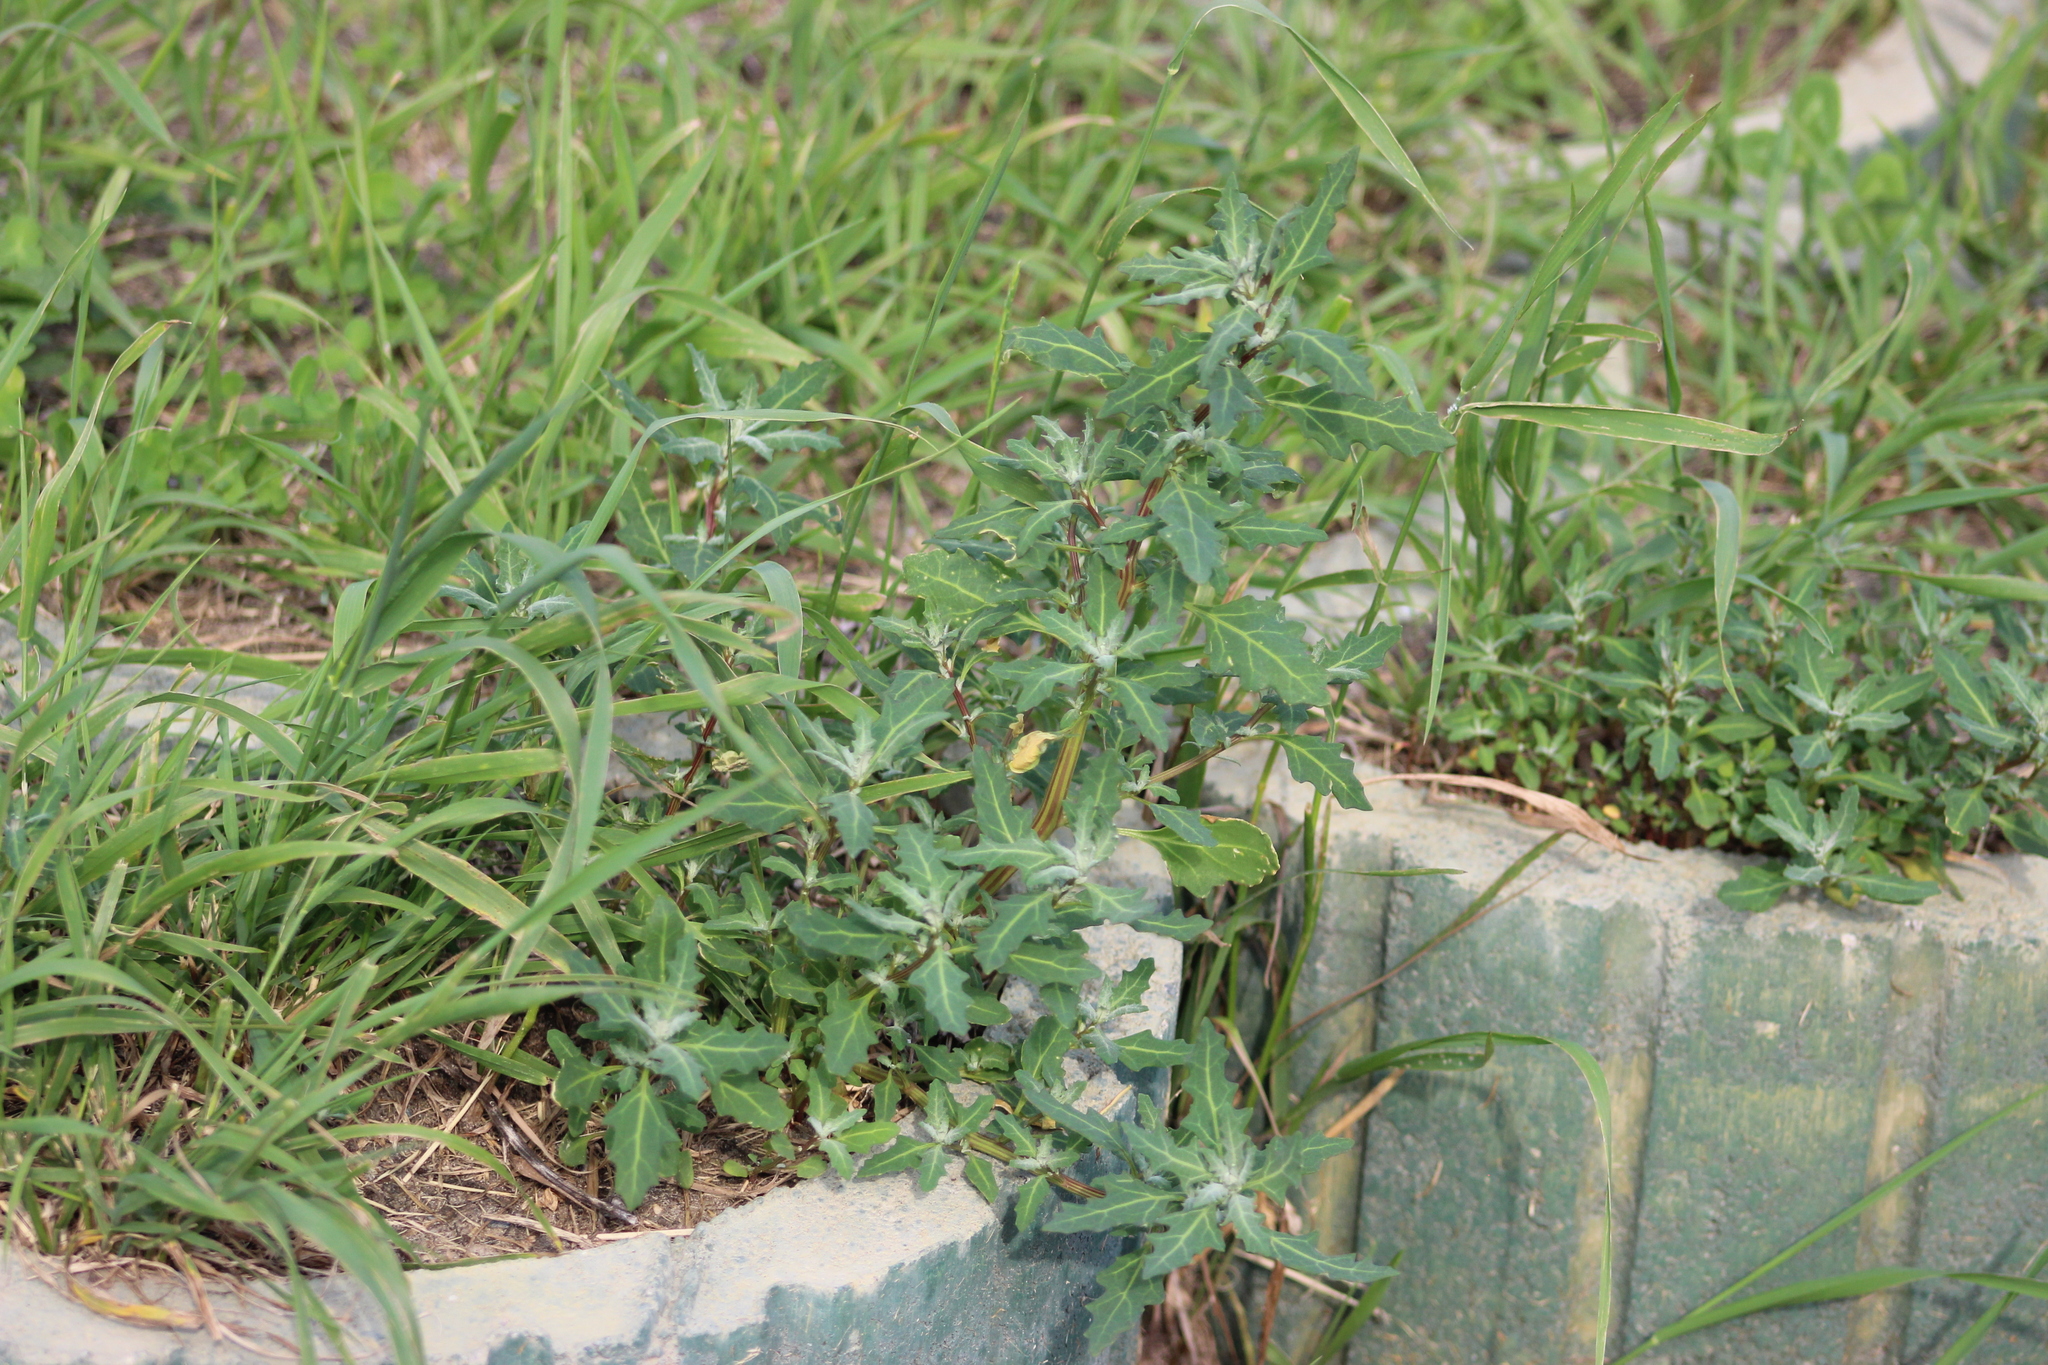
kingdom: Plantae
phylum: Tracheophyta
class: Magnoliopsida
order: Caryophyllales
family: Amaranthaceae
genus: Oxybasis
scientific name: Oxybasis glauca
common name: Glaucous goosefoot
